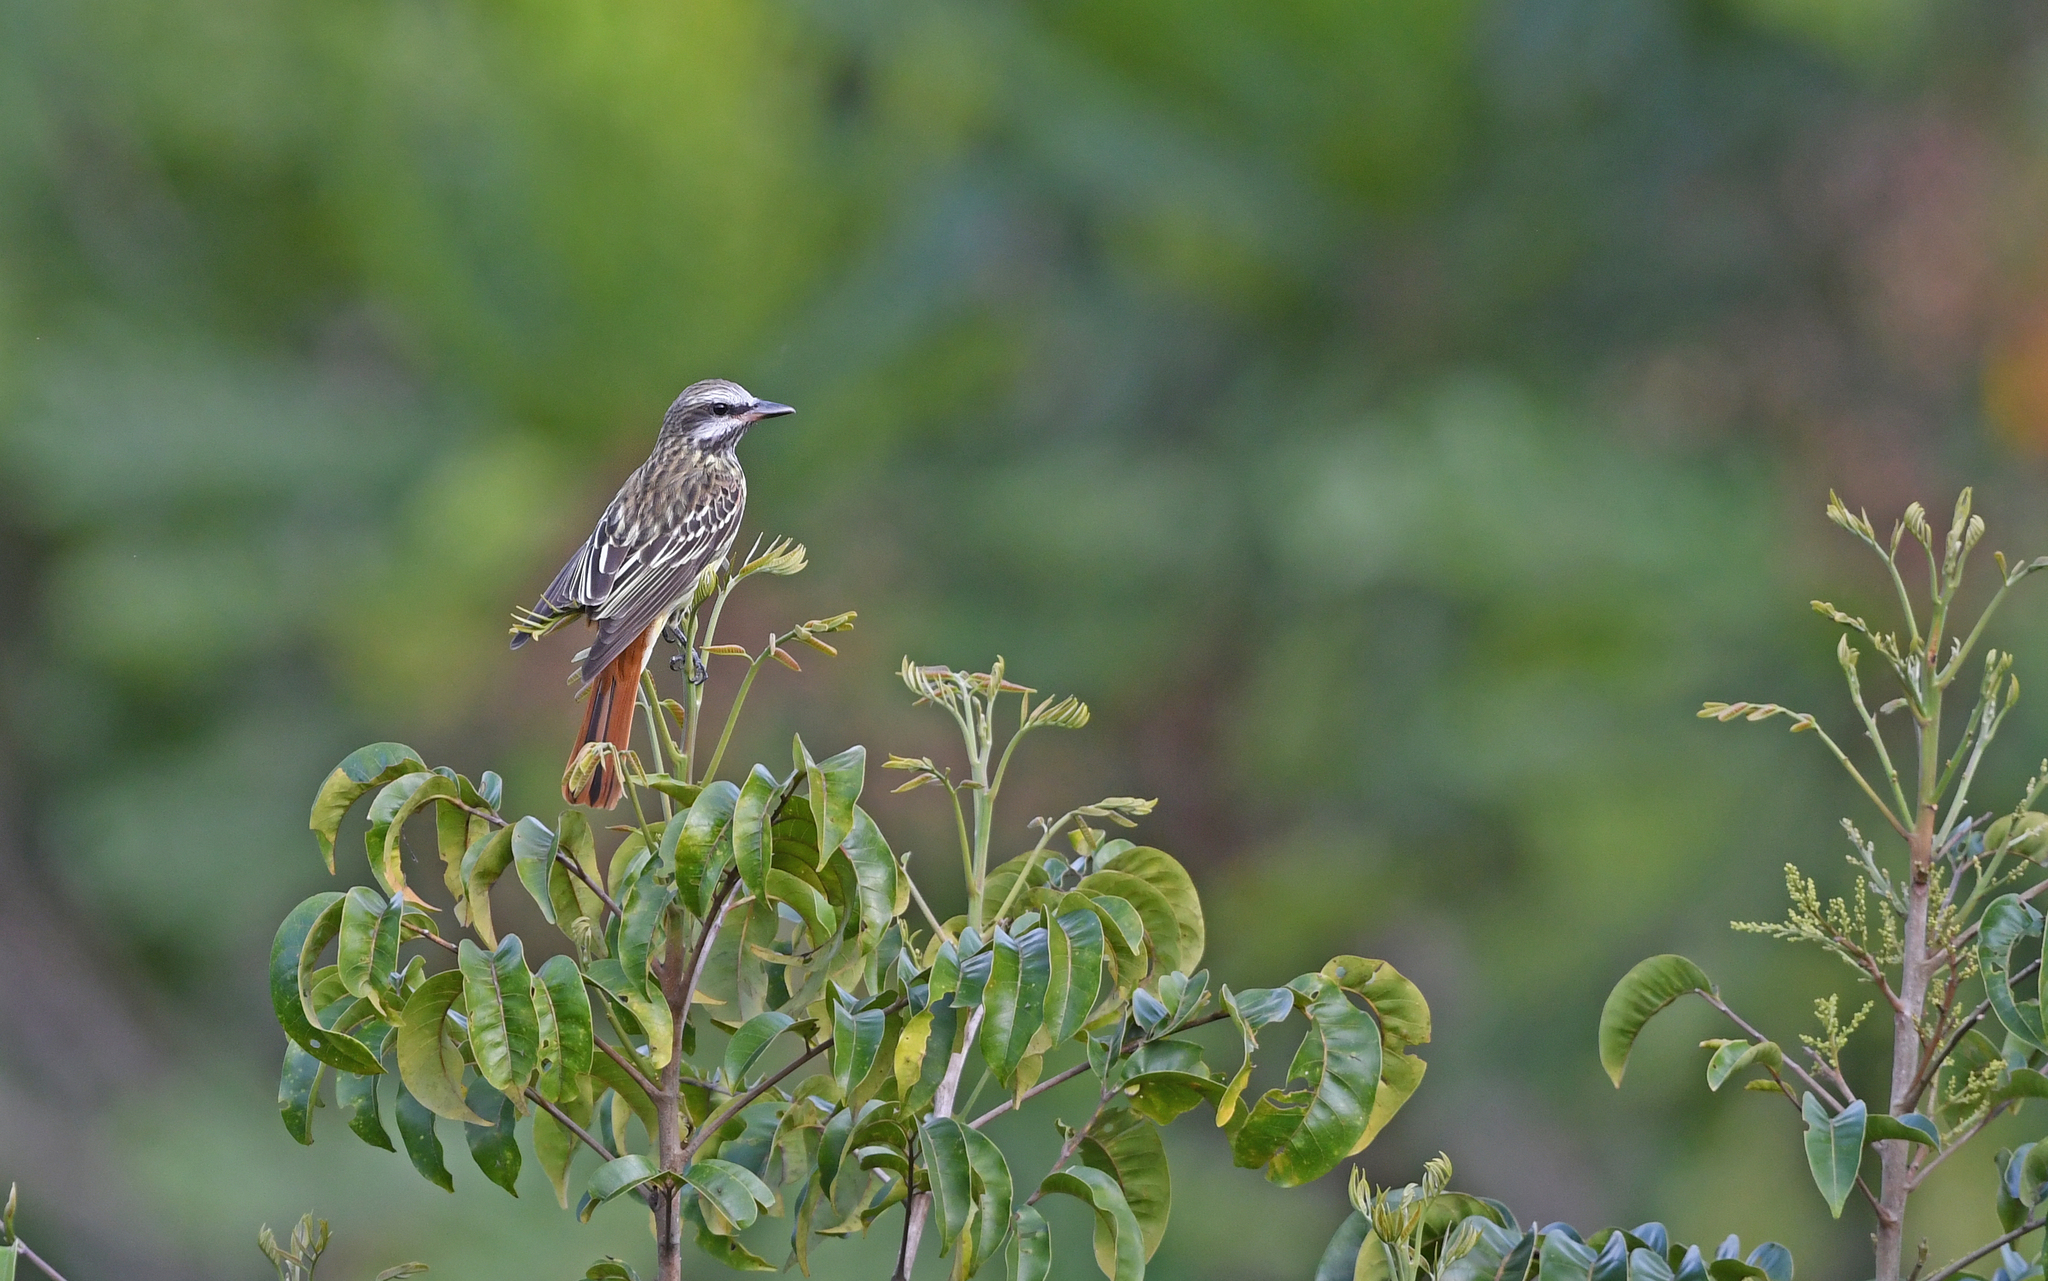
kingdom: Animalia
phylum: Chordata
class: Aves
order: Passeriformes
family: Tyrannidae
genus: Myiodynastes
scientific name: Myiodynastes maculatus
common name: Streaked flycatcher
